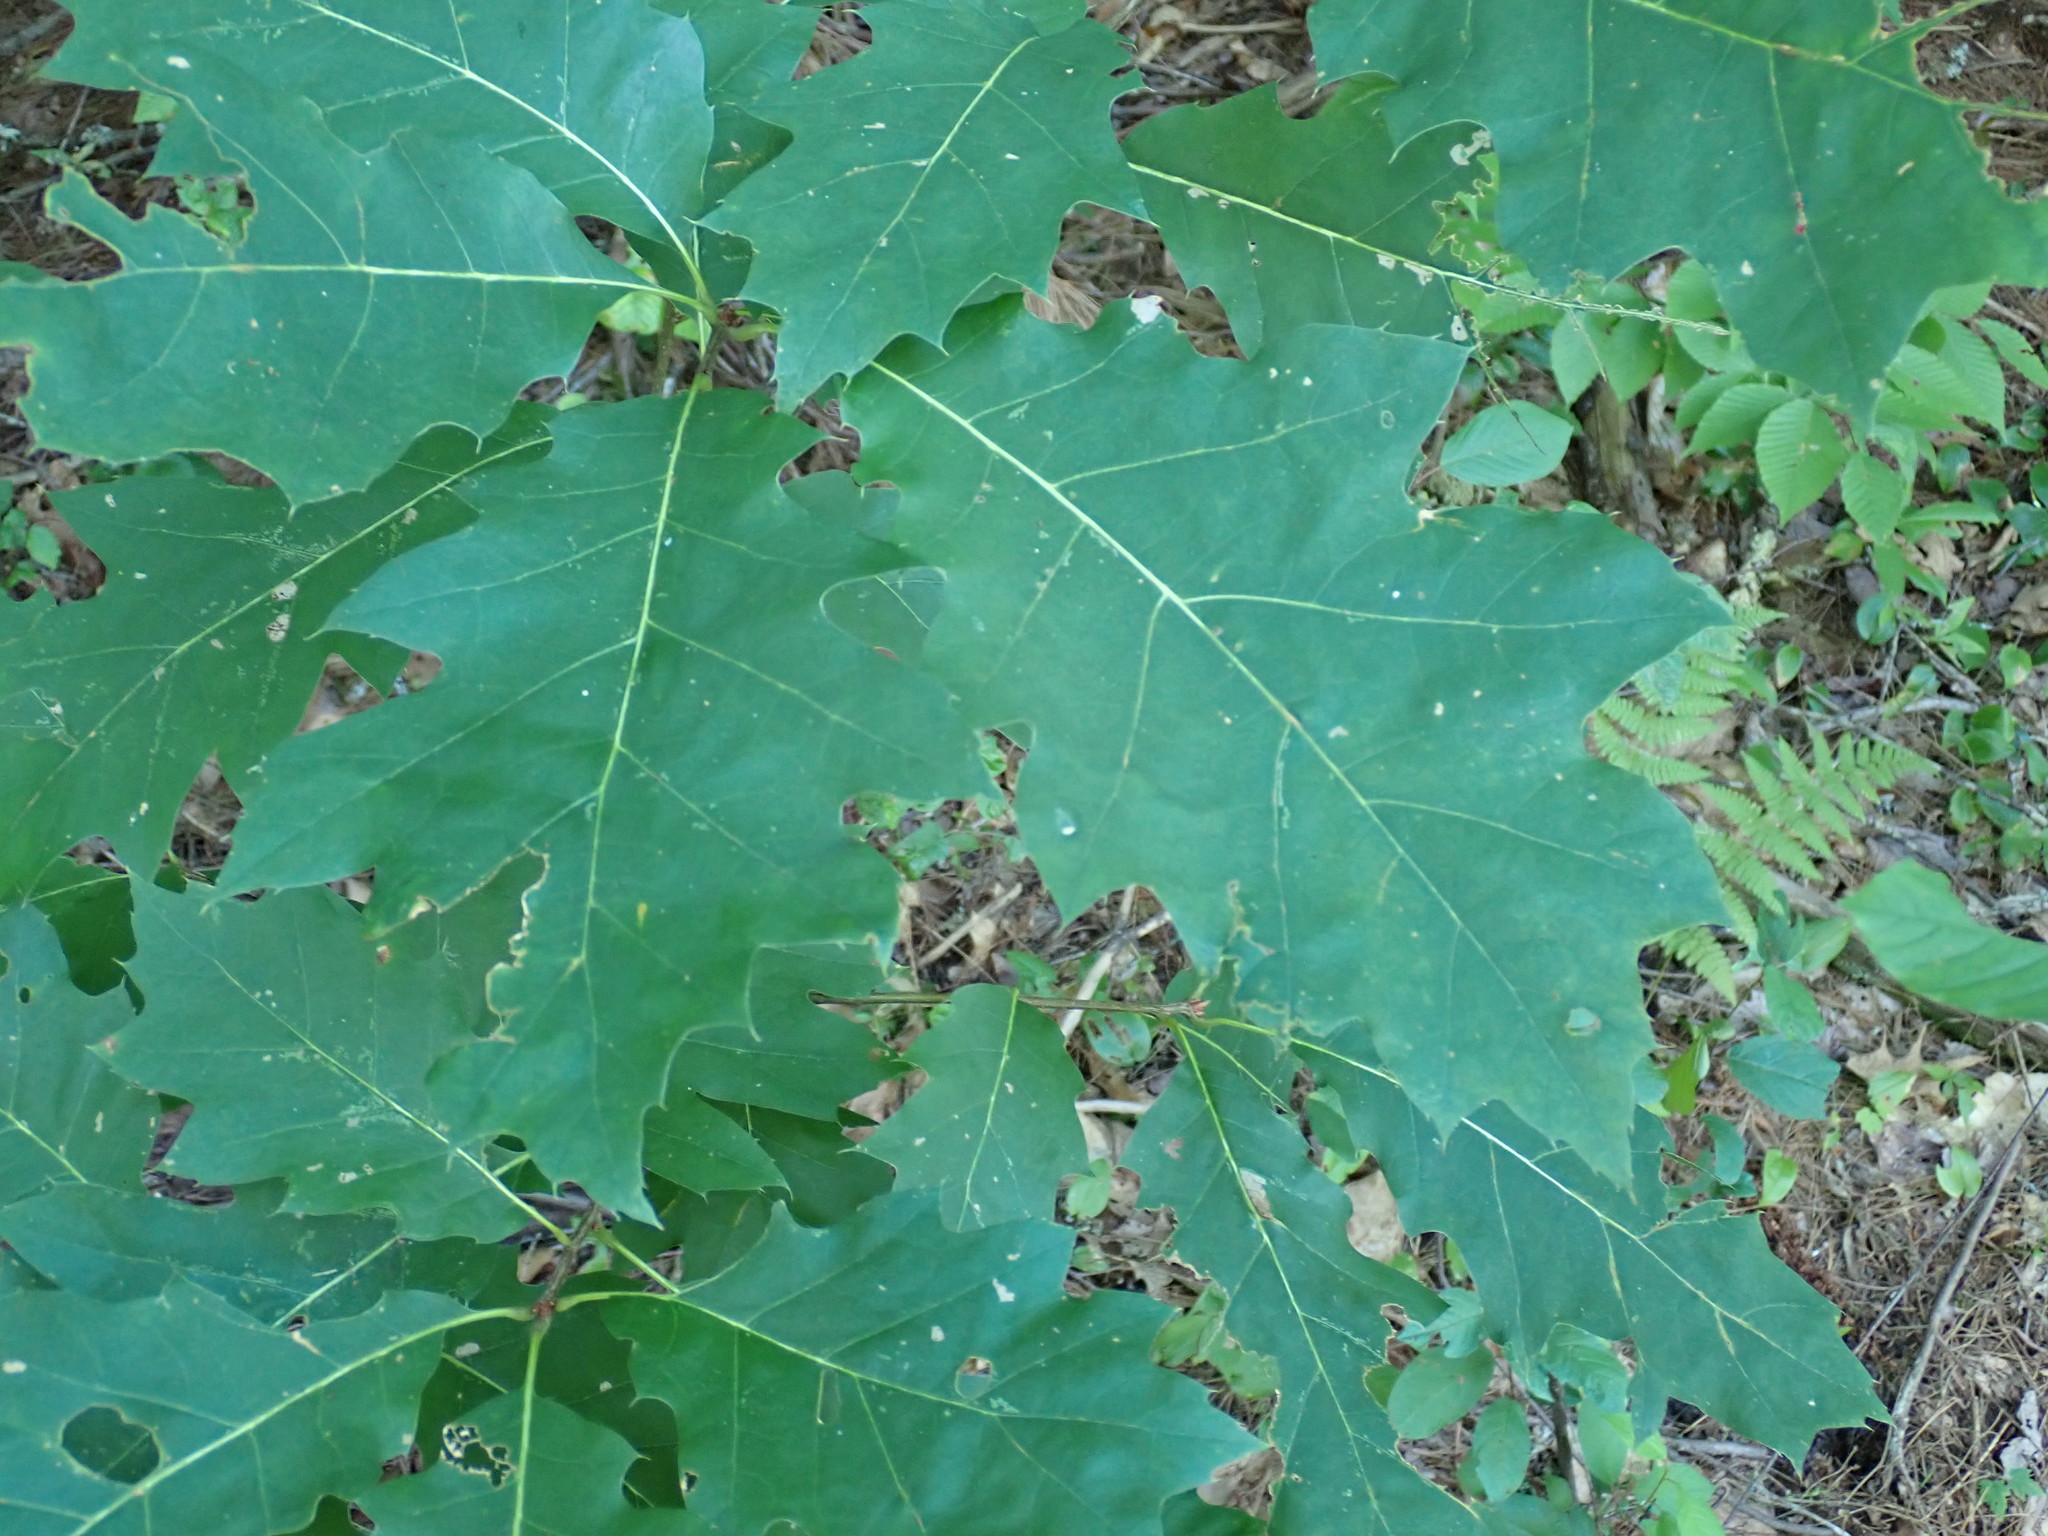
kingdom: Plantae
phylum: Tracheophyta
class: Magnoliopsida
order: Fagales
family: Fagaceae
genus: Quercus
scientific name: Quercus rubra
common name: Red oak
